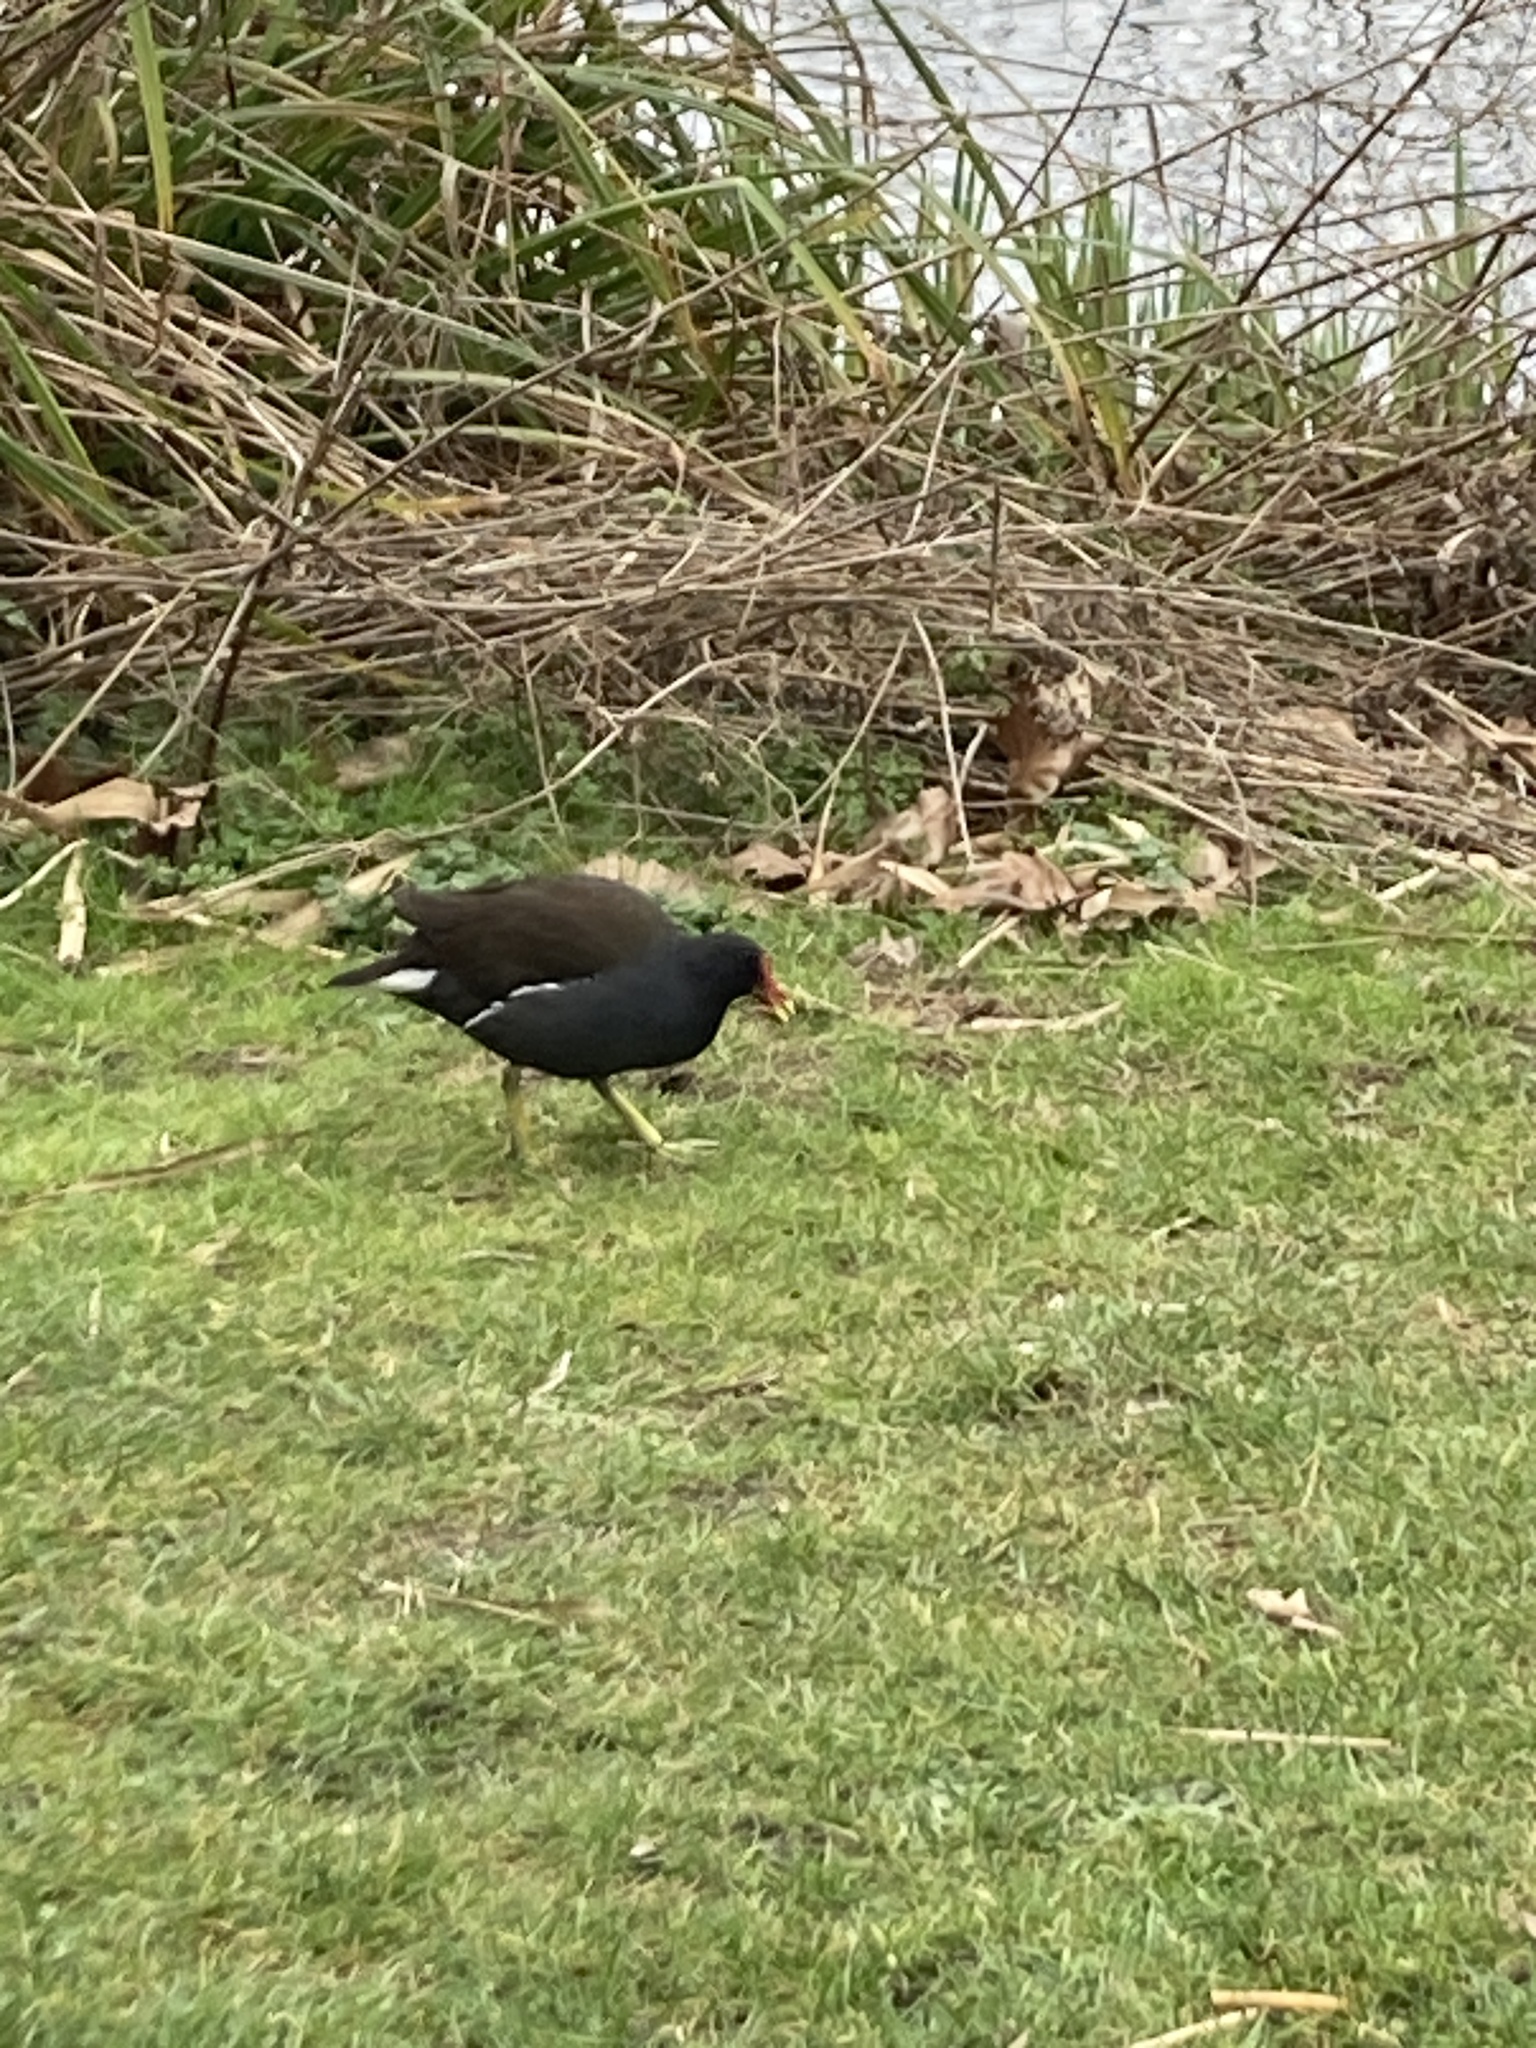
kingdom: Animalia
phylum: Chordata
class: Aves
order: Gruiformes
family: Rallidae
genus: Gallinula
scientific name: Gallinula chloropus
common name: Common moorhen
